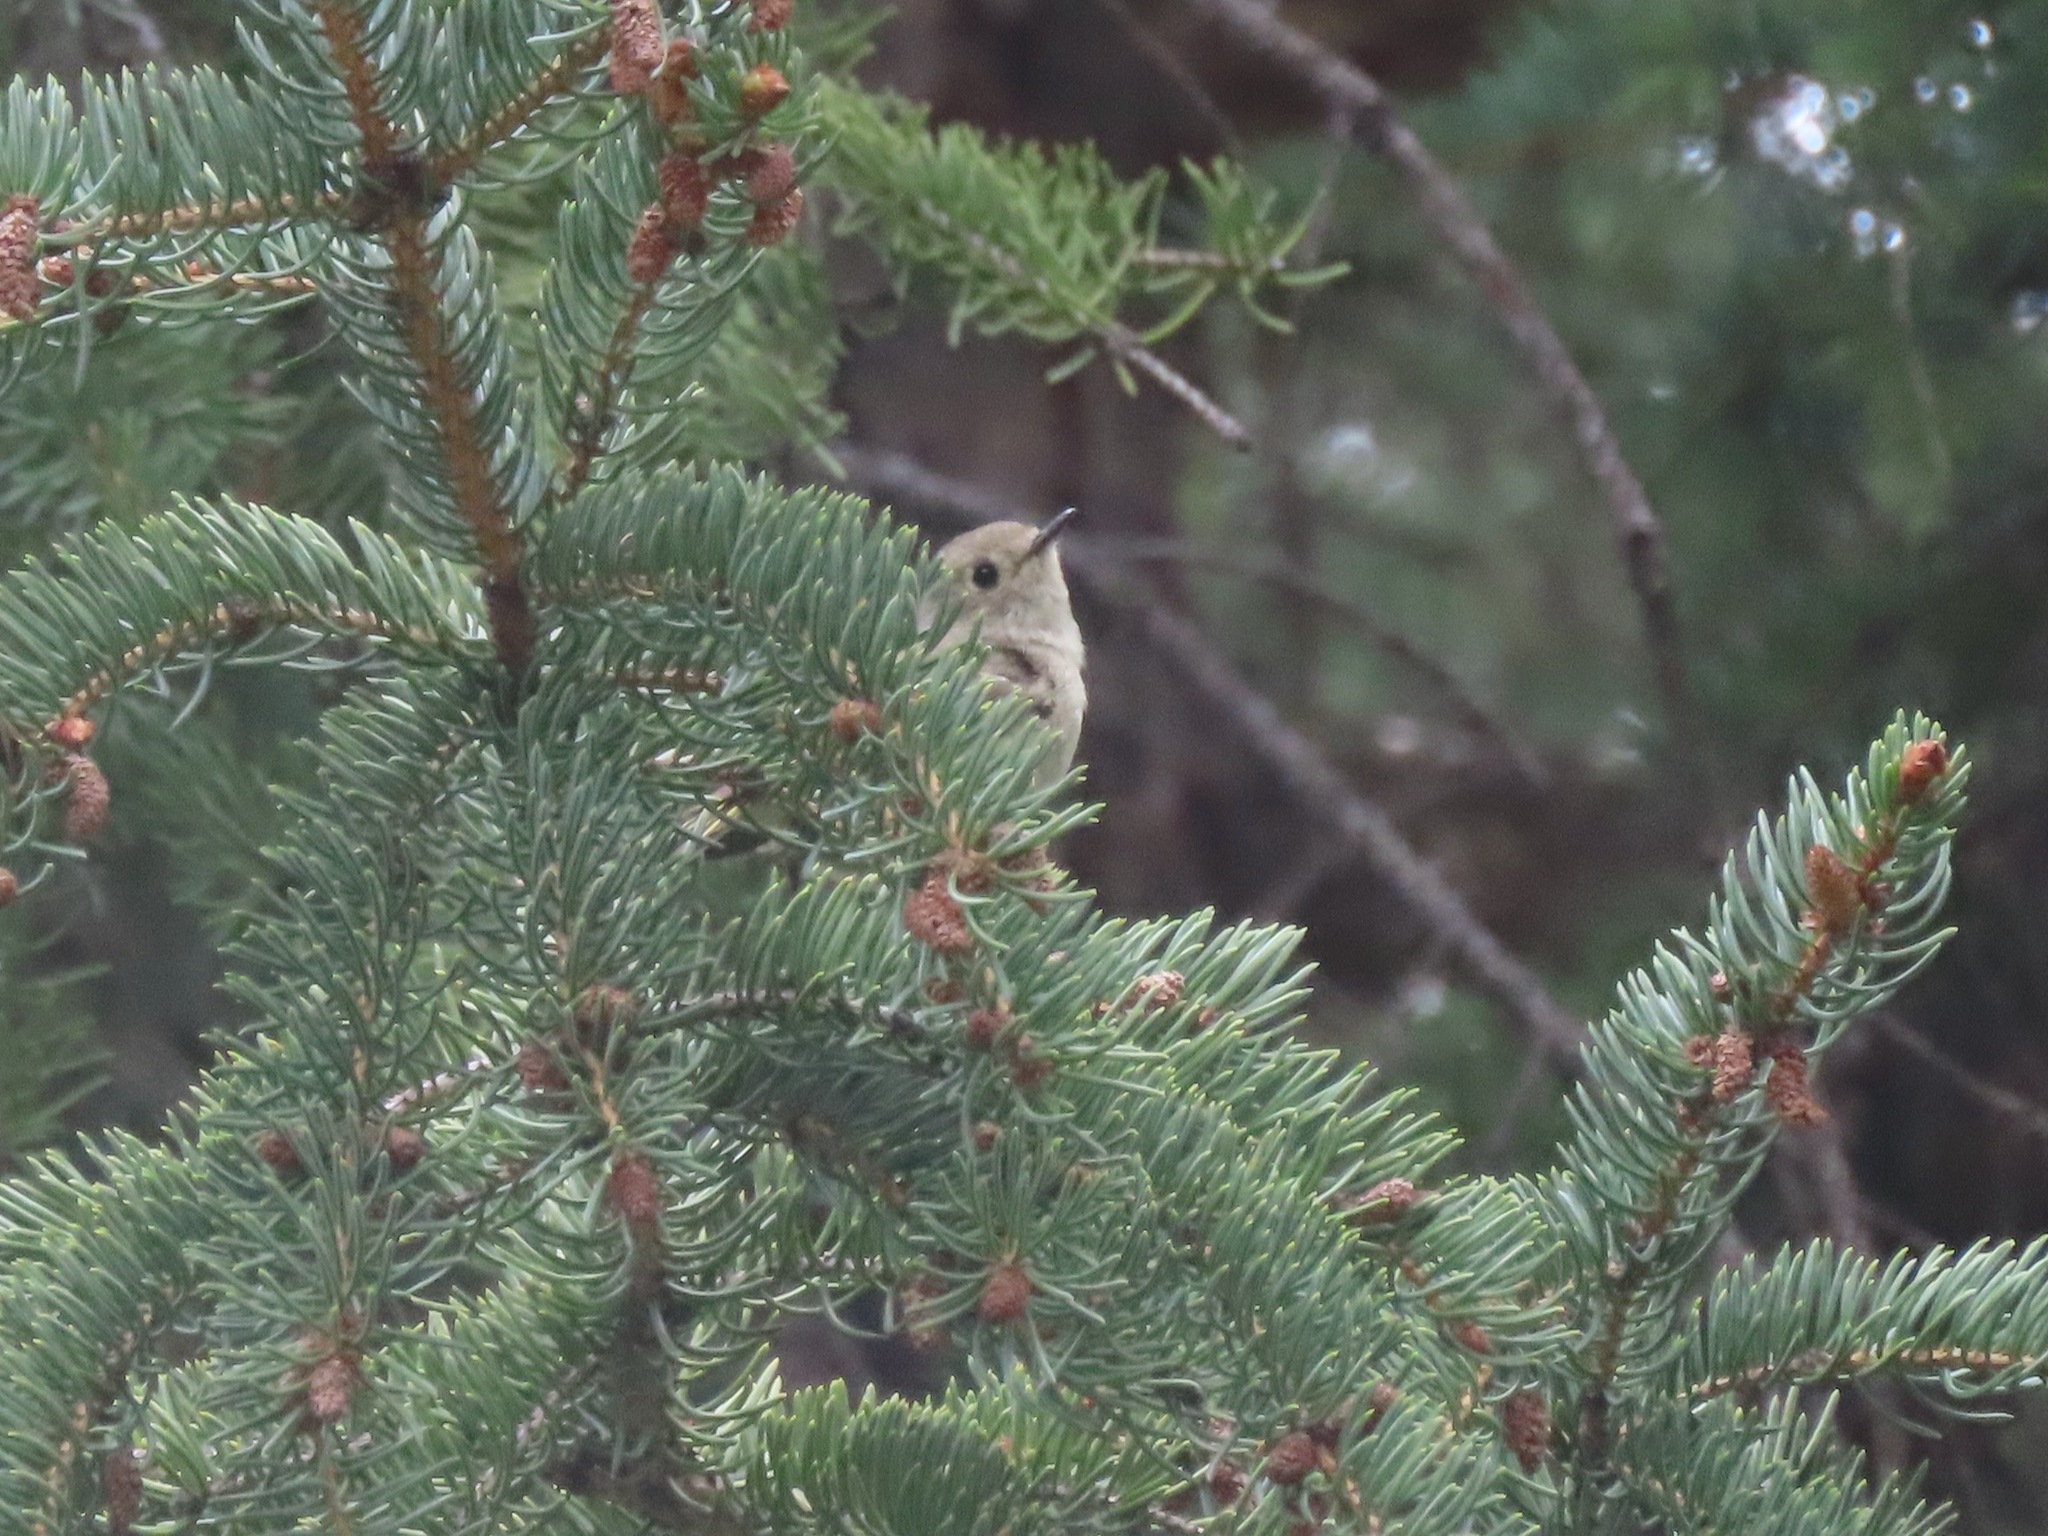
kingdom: Animalia
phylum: Chordata
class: Aves
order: Passeriformes
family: Regulidae
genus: Regulus
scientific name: Regulus calendula
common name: Ruby-crowned kinglet
